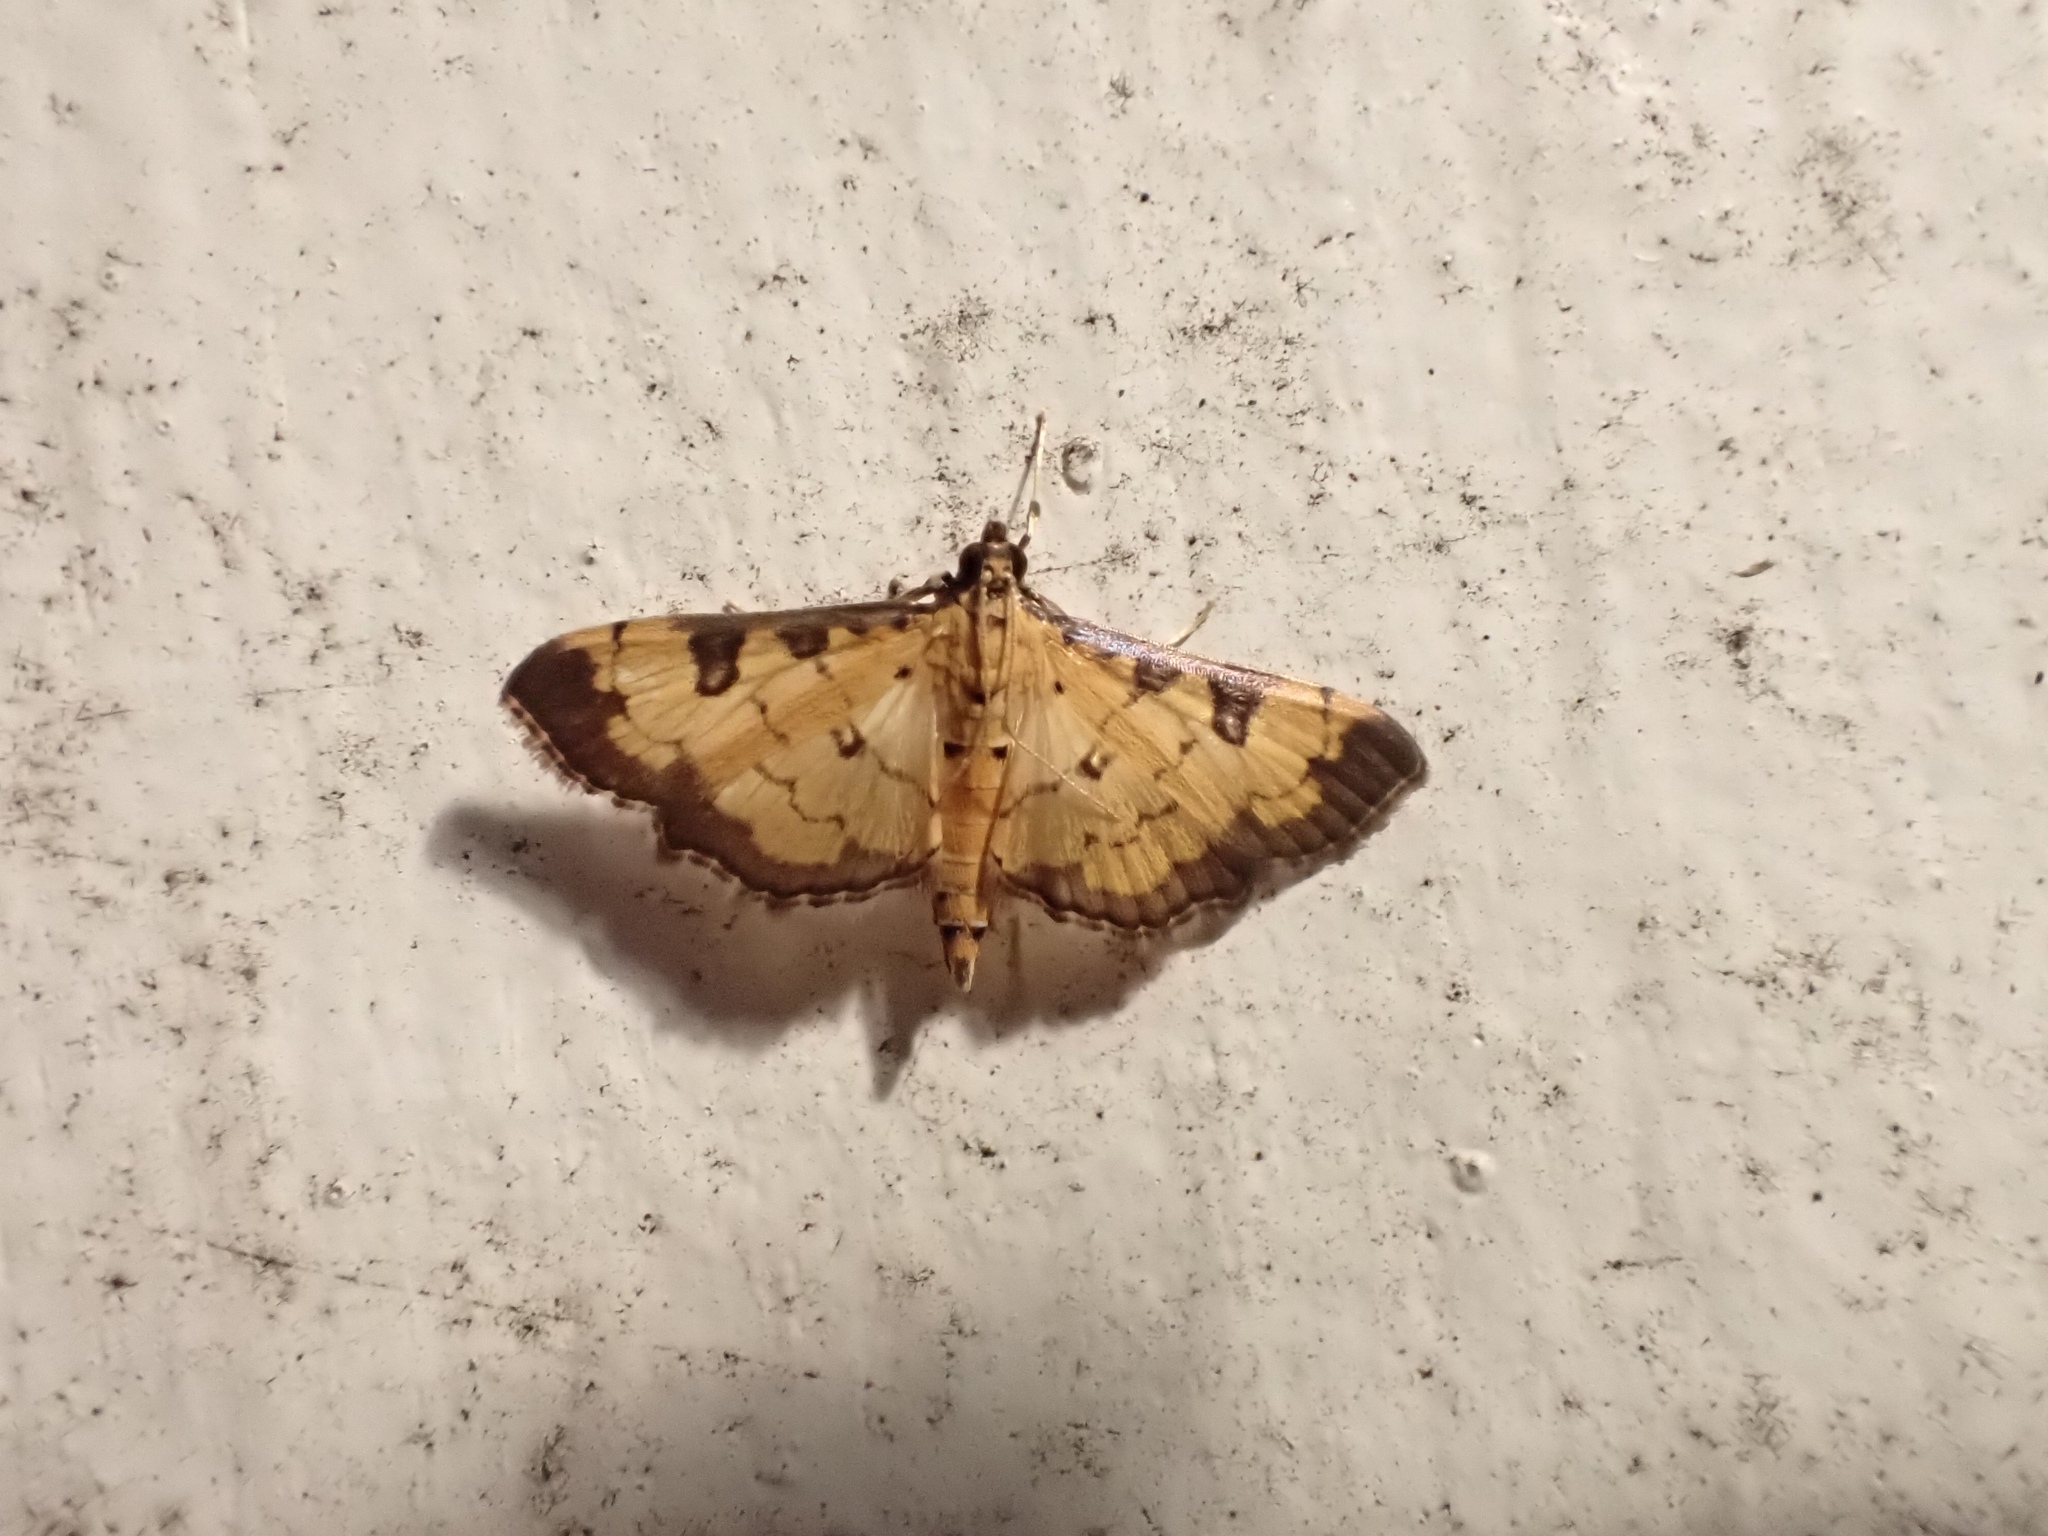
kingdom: Animalia
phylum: Arthropoda
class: Insecta
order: Lepidoptera
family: Crambidae
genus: Ategumia
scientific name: Ategumia ebulealis
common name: Moth
